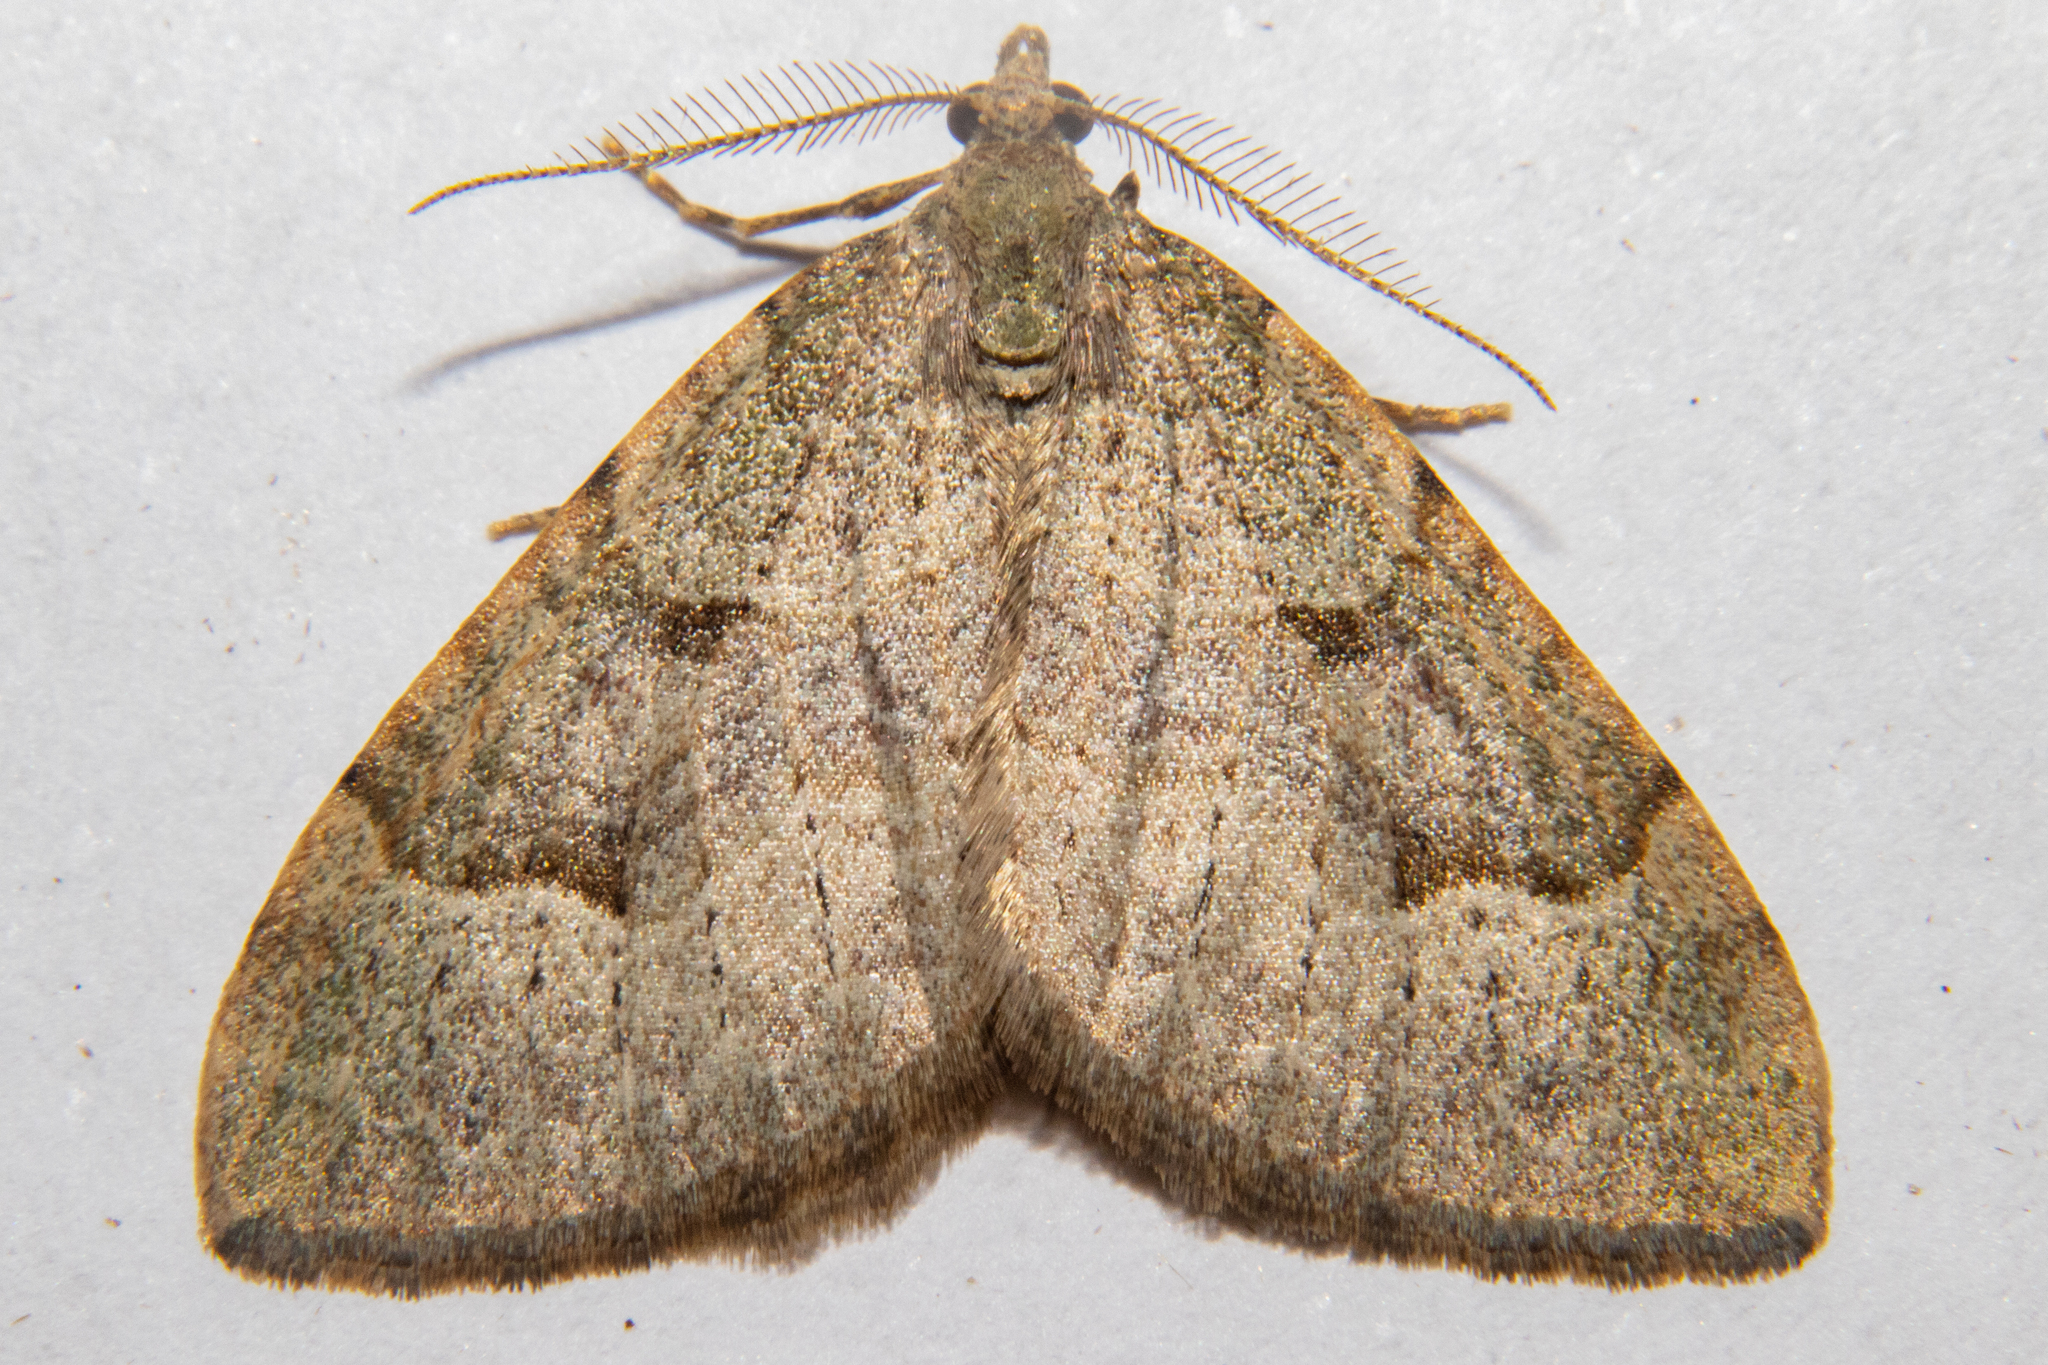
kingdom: Animalia
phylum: Arthropoda
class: Insecta
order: Lepidoptera
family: Geometridae
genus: Epyaxa
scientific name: Epyaxa rosearia
